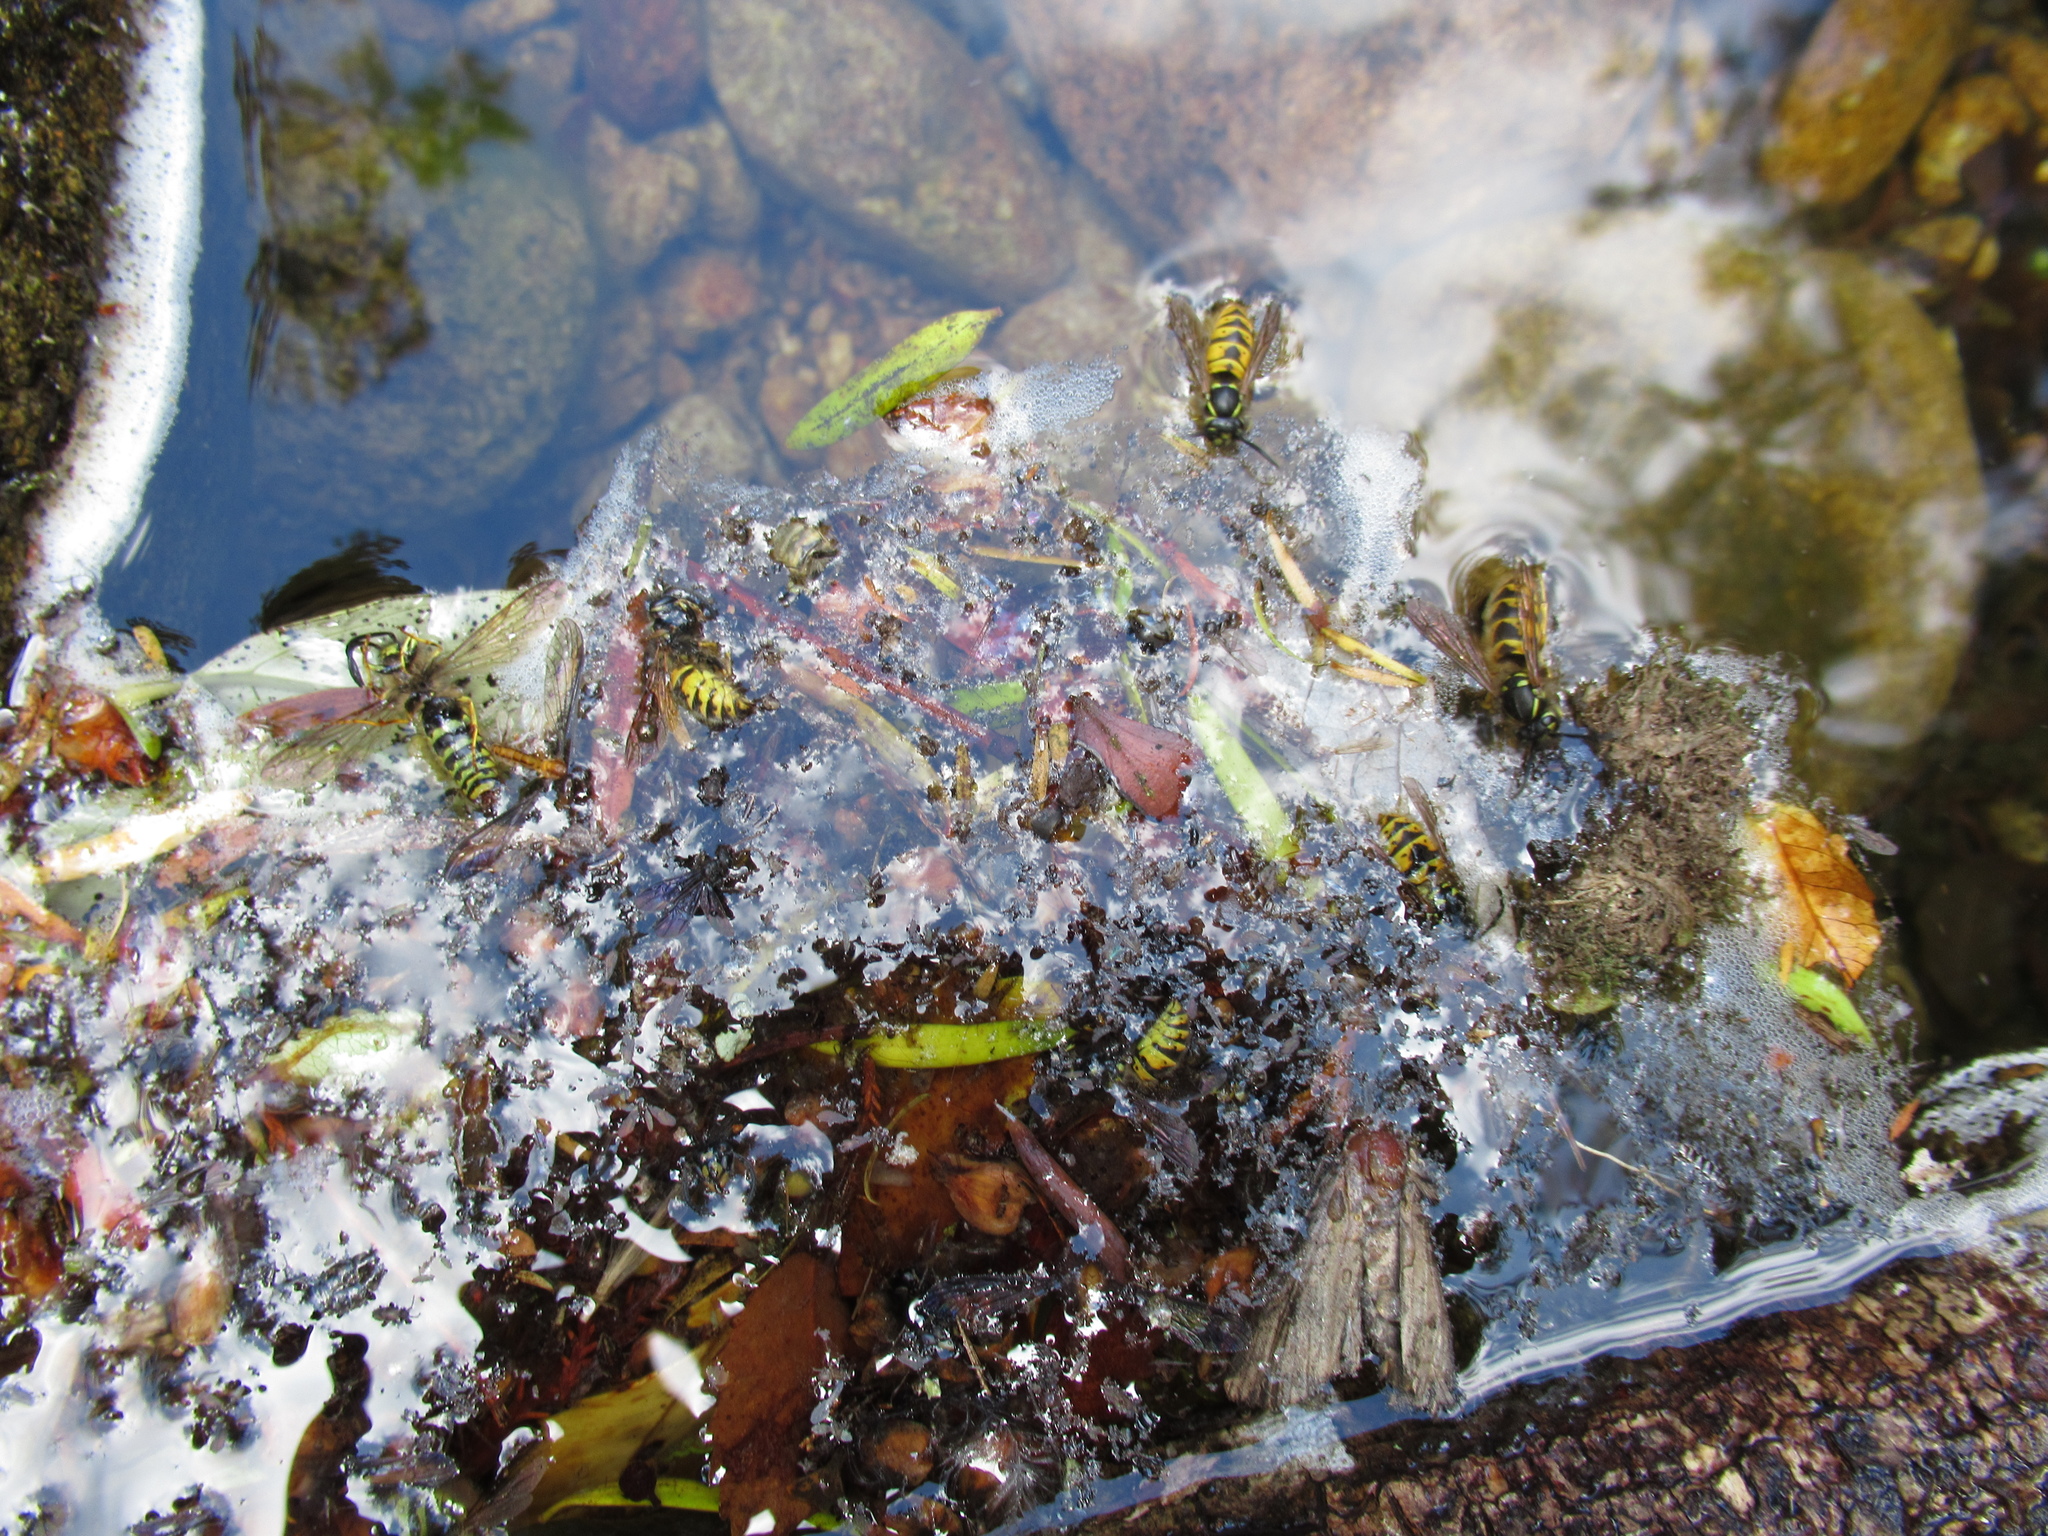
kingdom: Animalia
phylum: Arthropoda
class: Insecta
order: Hymenoptera
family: Vespidae
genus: Vespula
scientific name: Vespula vulgaris
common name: Common wasp
